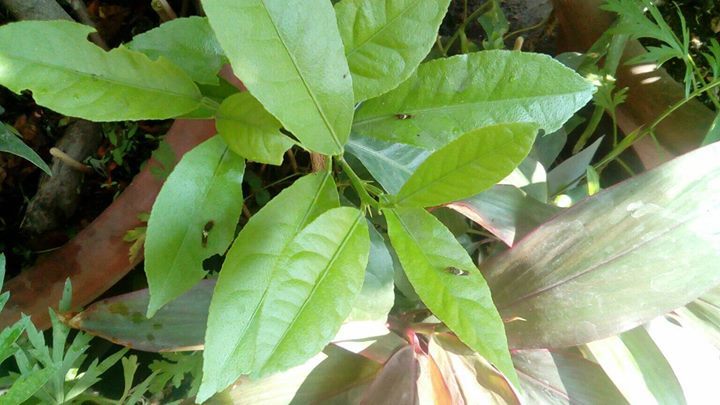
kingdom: Animalia
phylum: Arthropoda
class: Insecta
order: Lepidoptera
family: Papilionidae
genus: Papilio
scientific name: Papilio demoleus
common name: Lime butterfly
